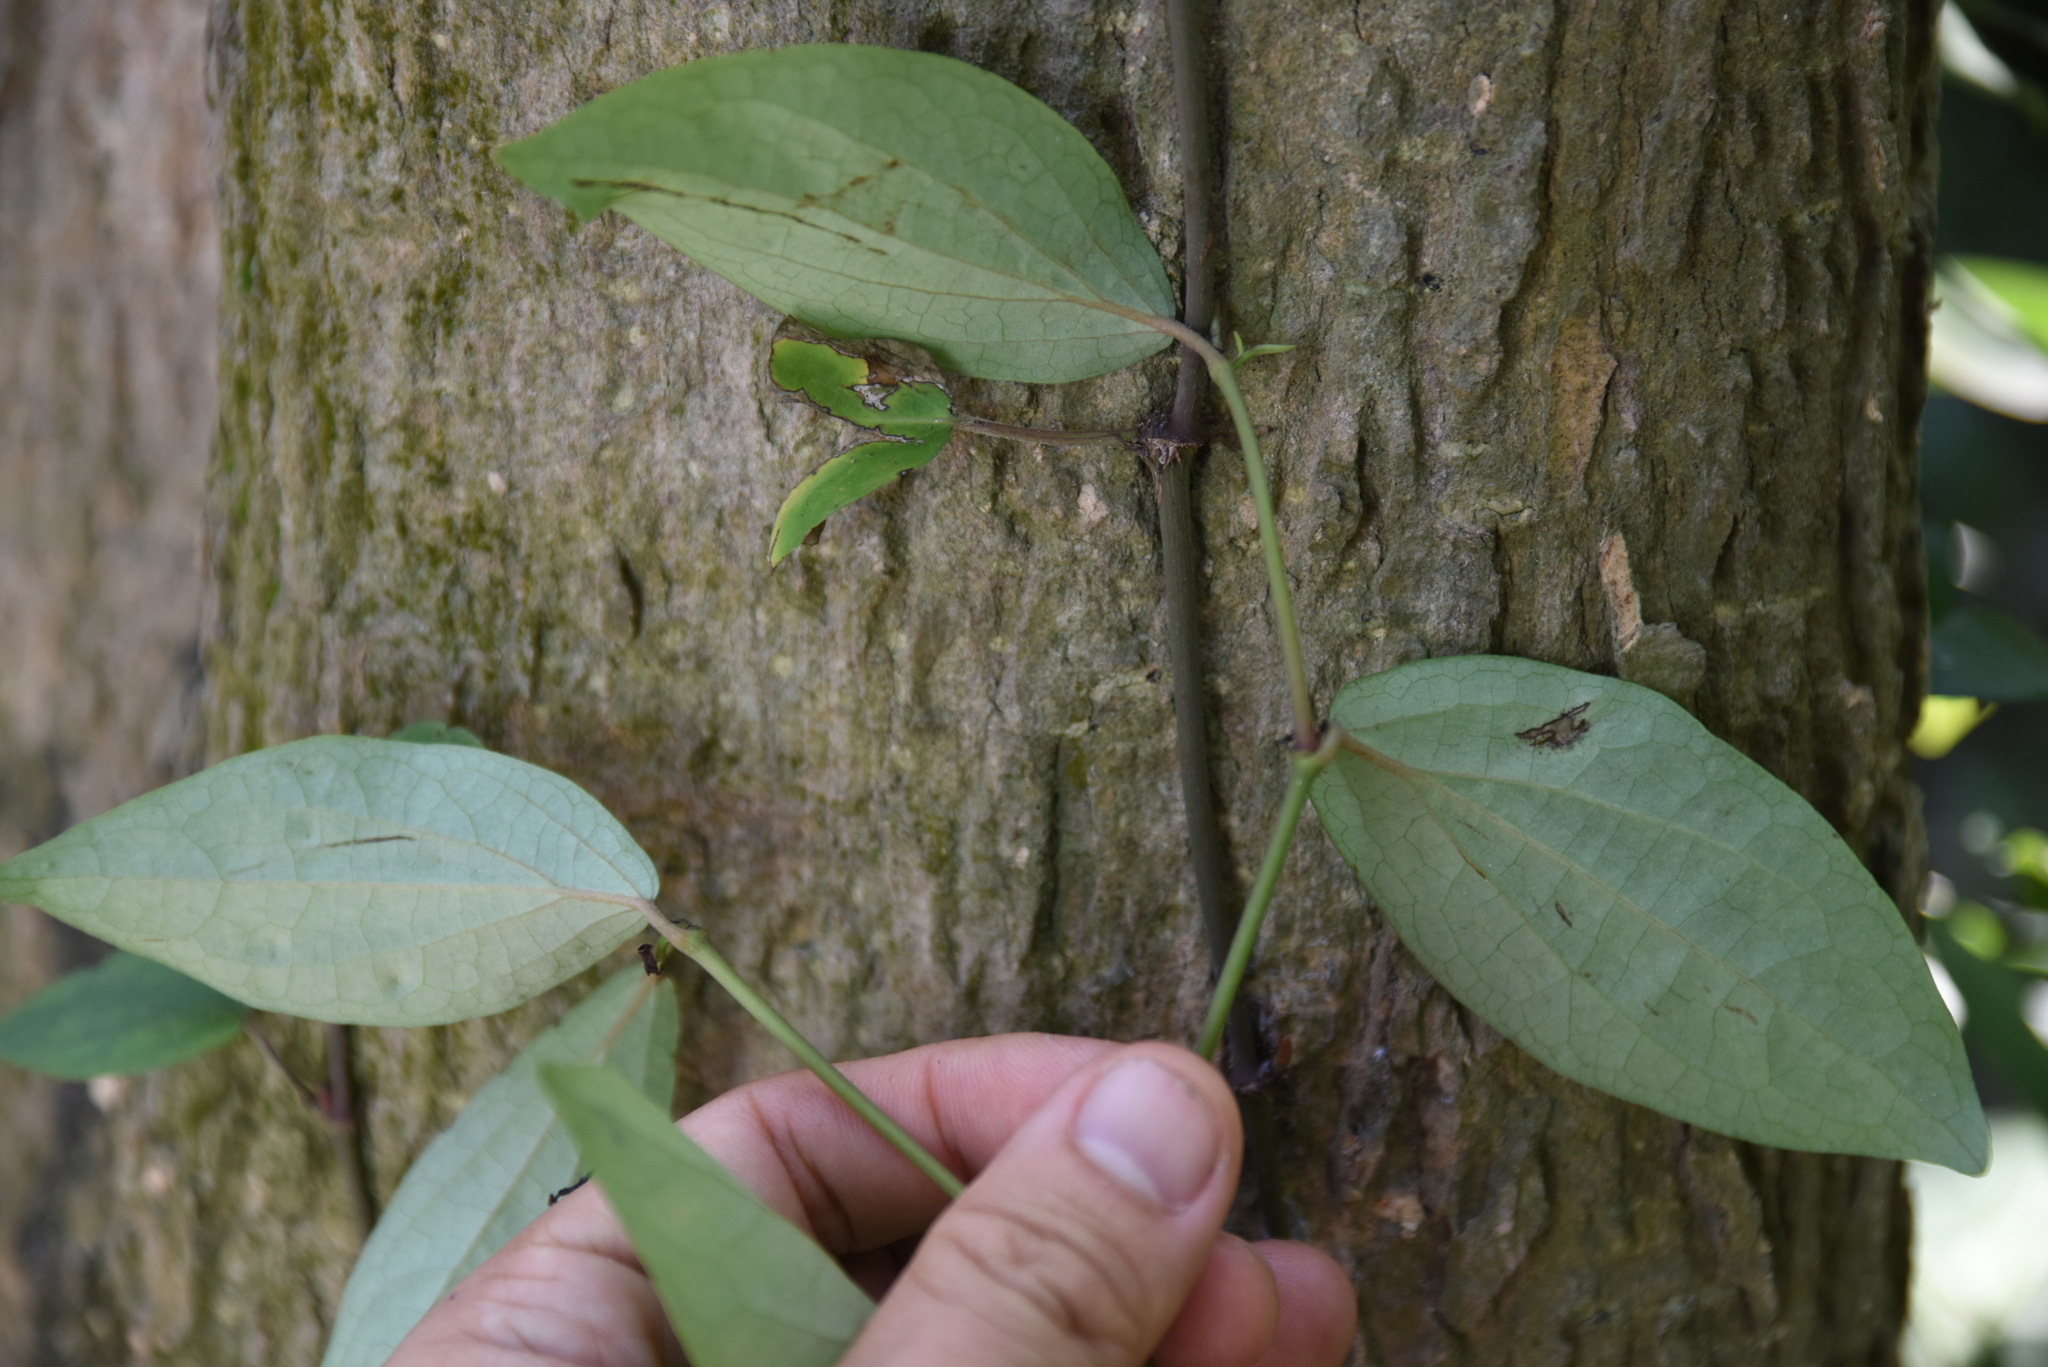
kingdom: Plantae
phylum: Tracheophyta
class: Magnoliopsida
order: Piperales
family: Piperaceae
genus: Piper
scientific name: Piper kadsura
